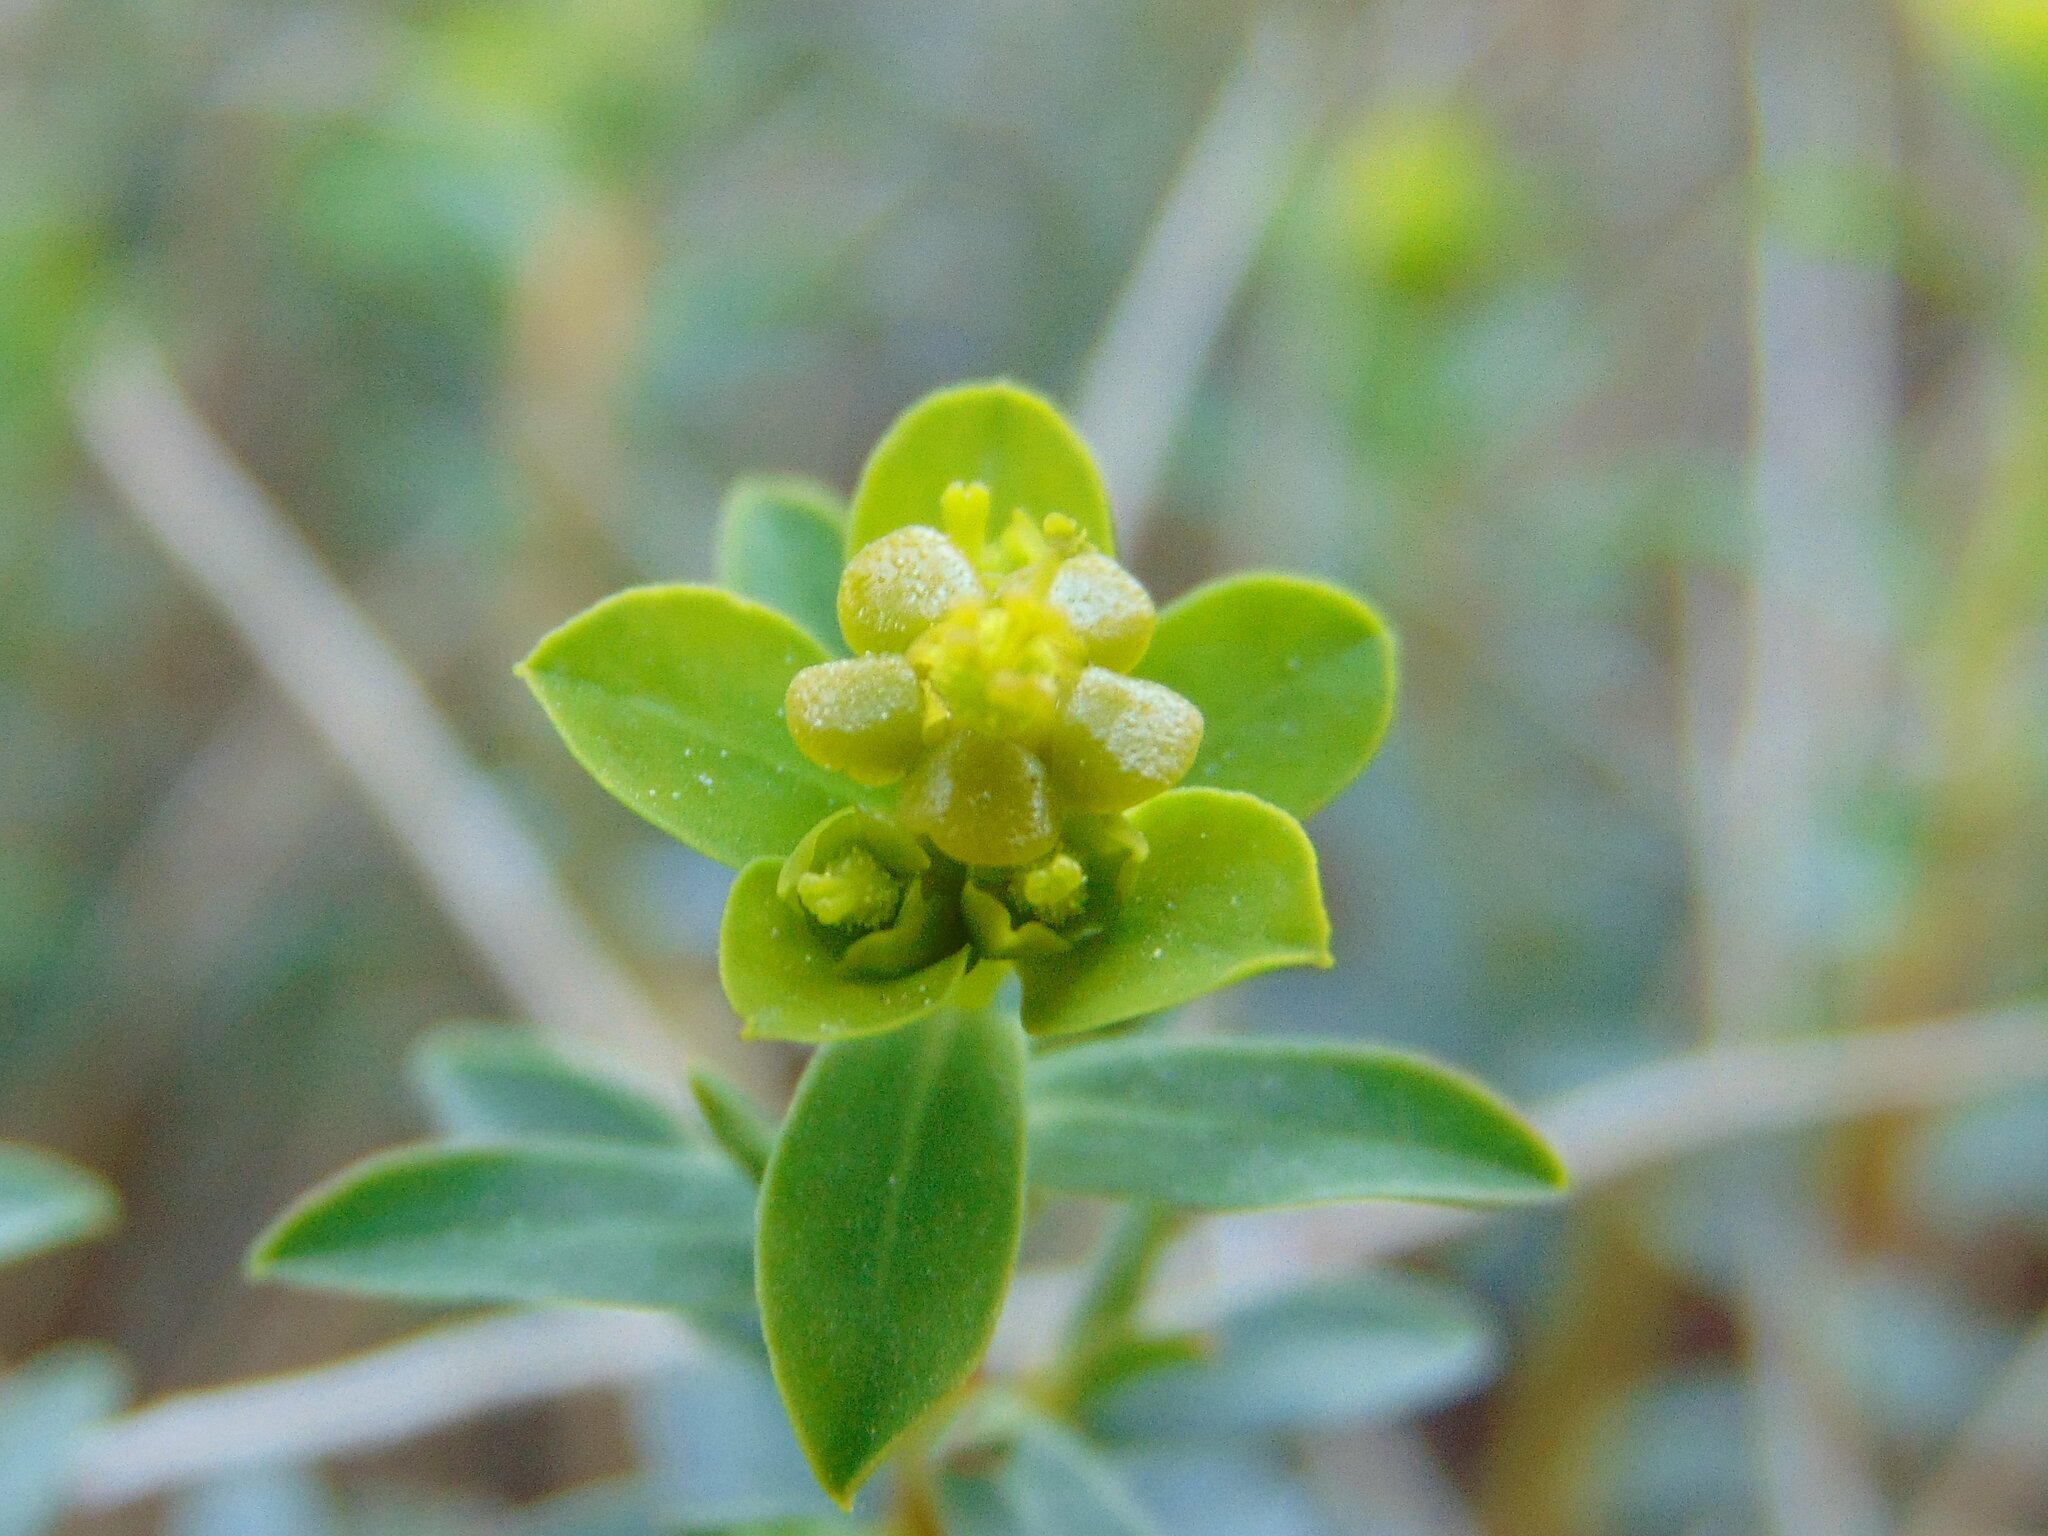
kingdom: Plantae
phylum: Tracheophyta
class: Magnoliopsida
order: Malpighiales
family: Euphorbiaceae
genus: Euphorbia
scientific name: Euphorbia spinosa
